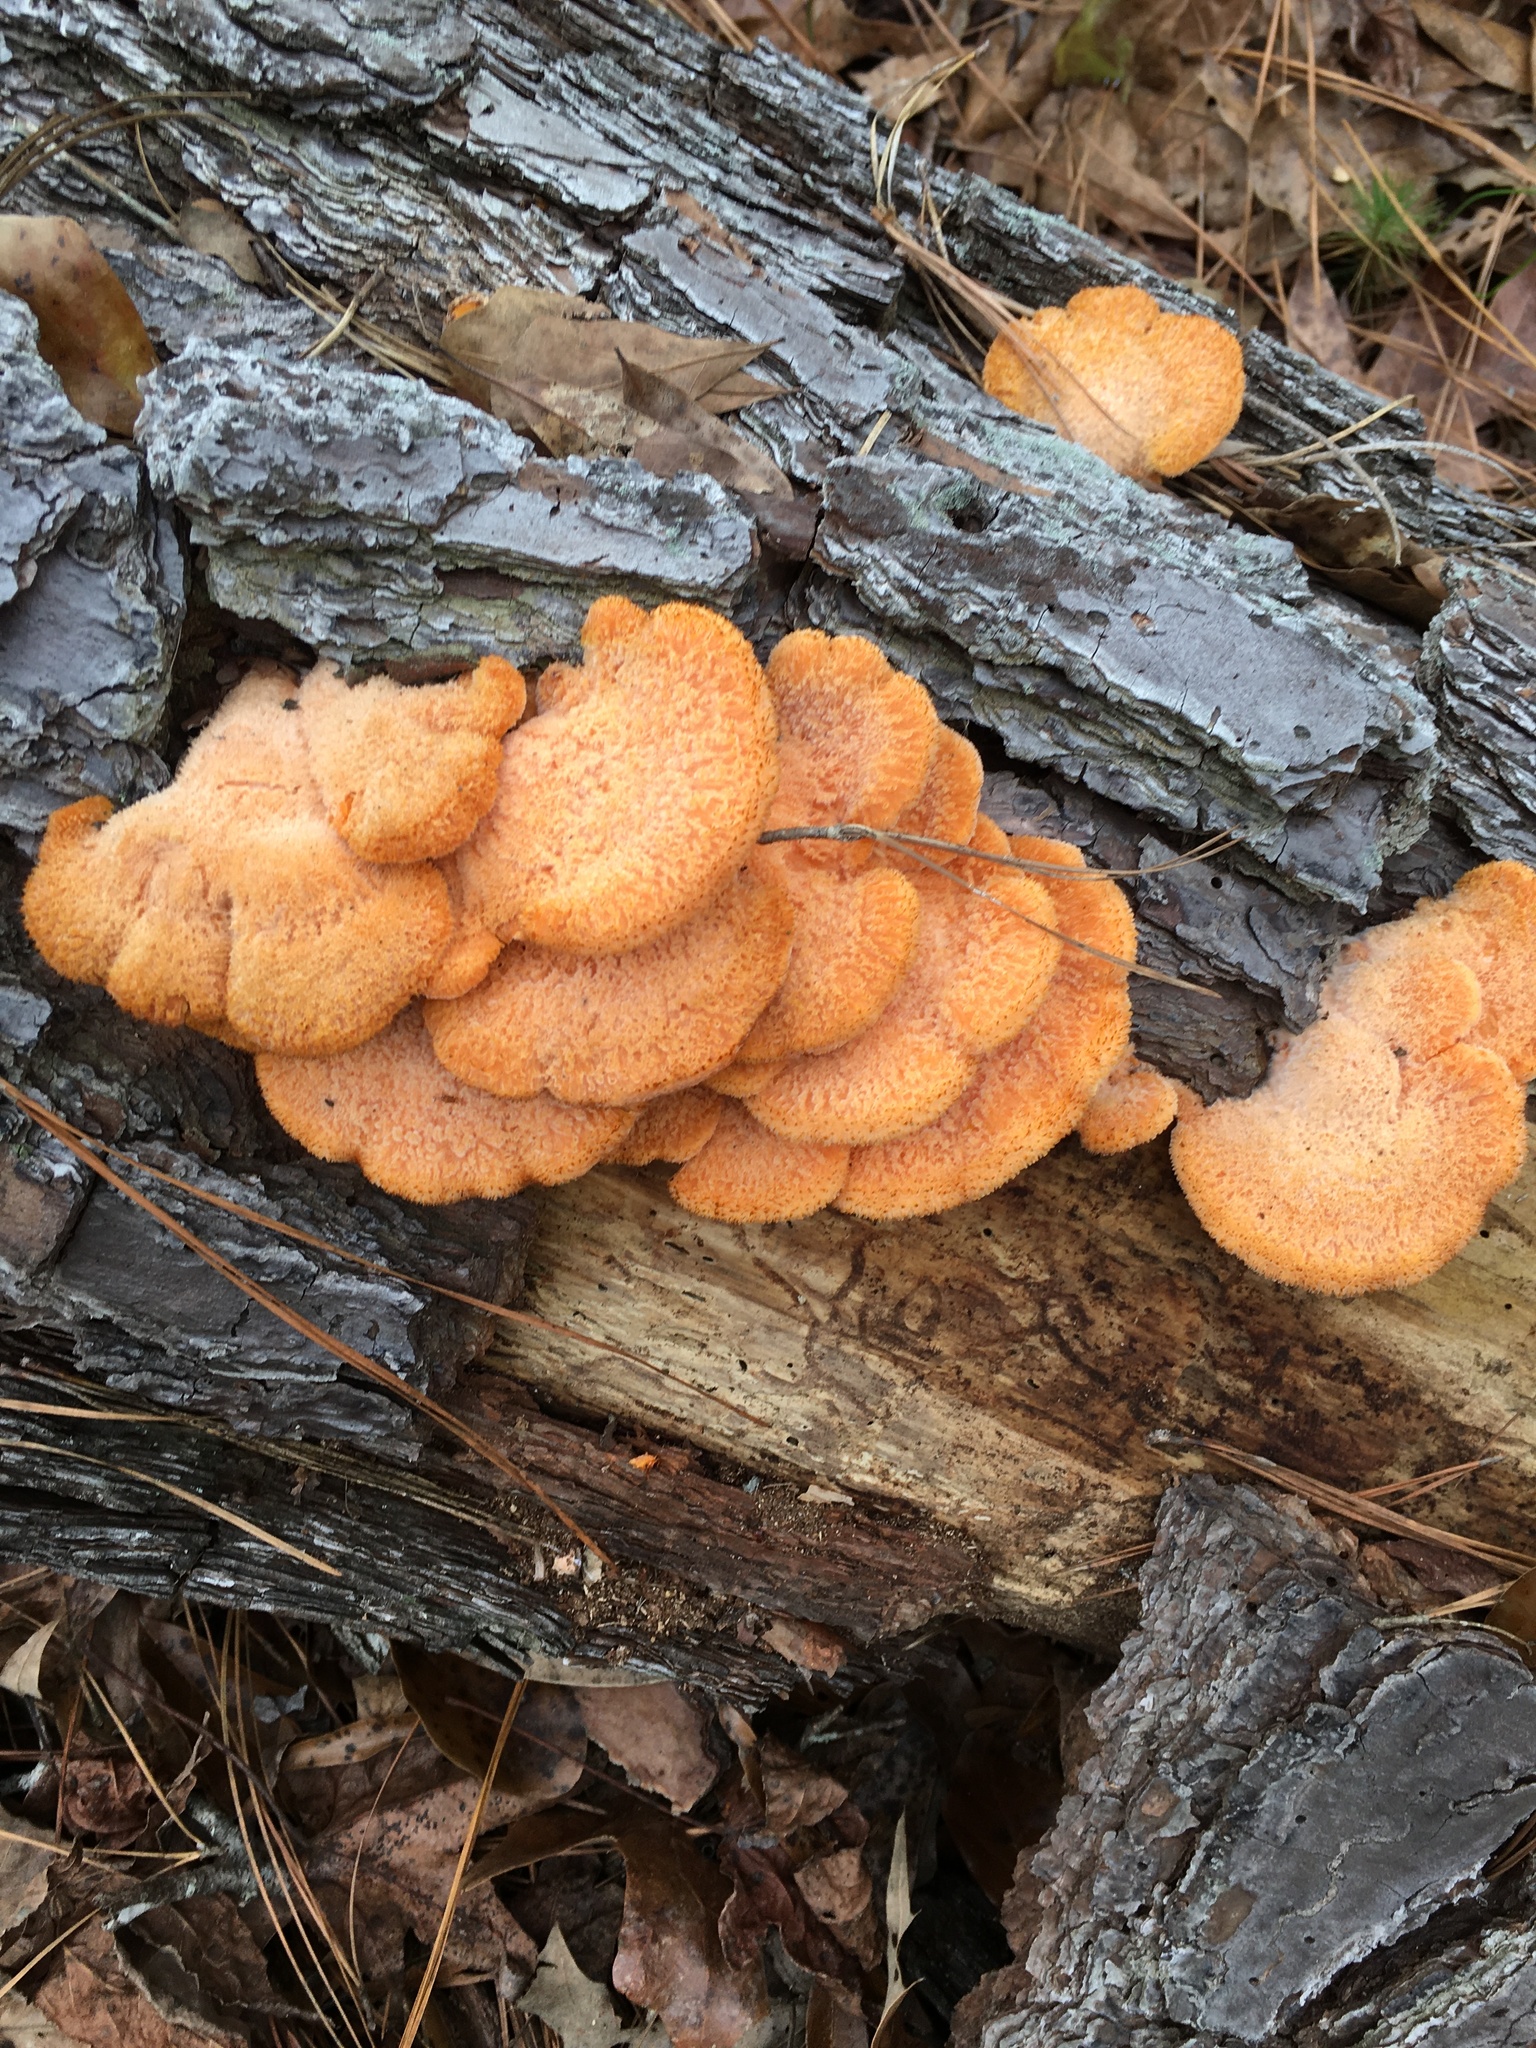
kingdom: Fungi
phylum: Basidiomycota
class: Agaricomycetes
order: Agaricales
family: Phyllotopsidaceae
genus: Phyllotopsis
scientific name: Phyllotopsis nidulans
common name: Orange mock oyster
